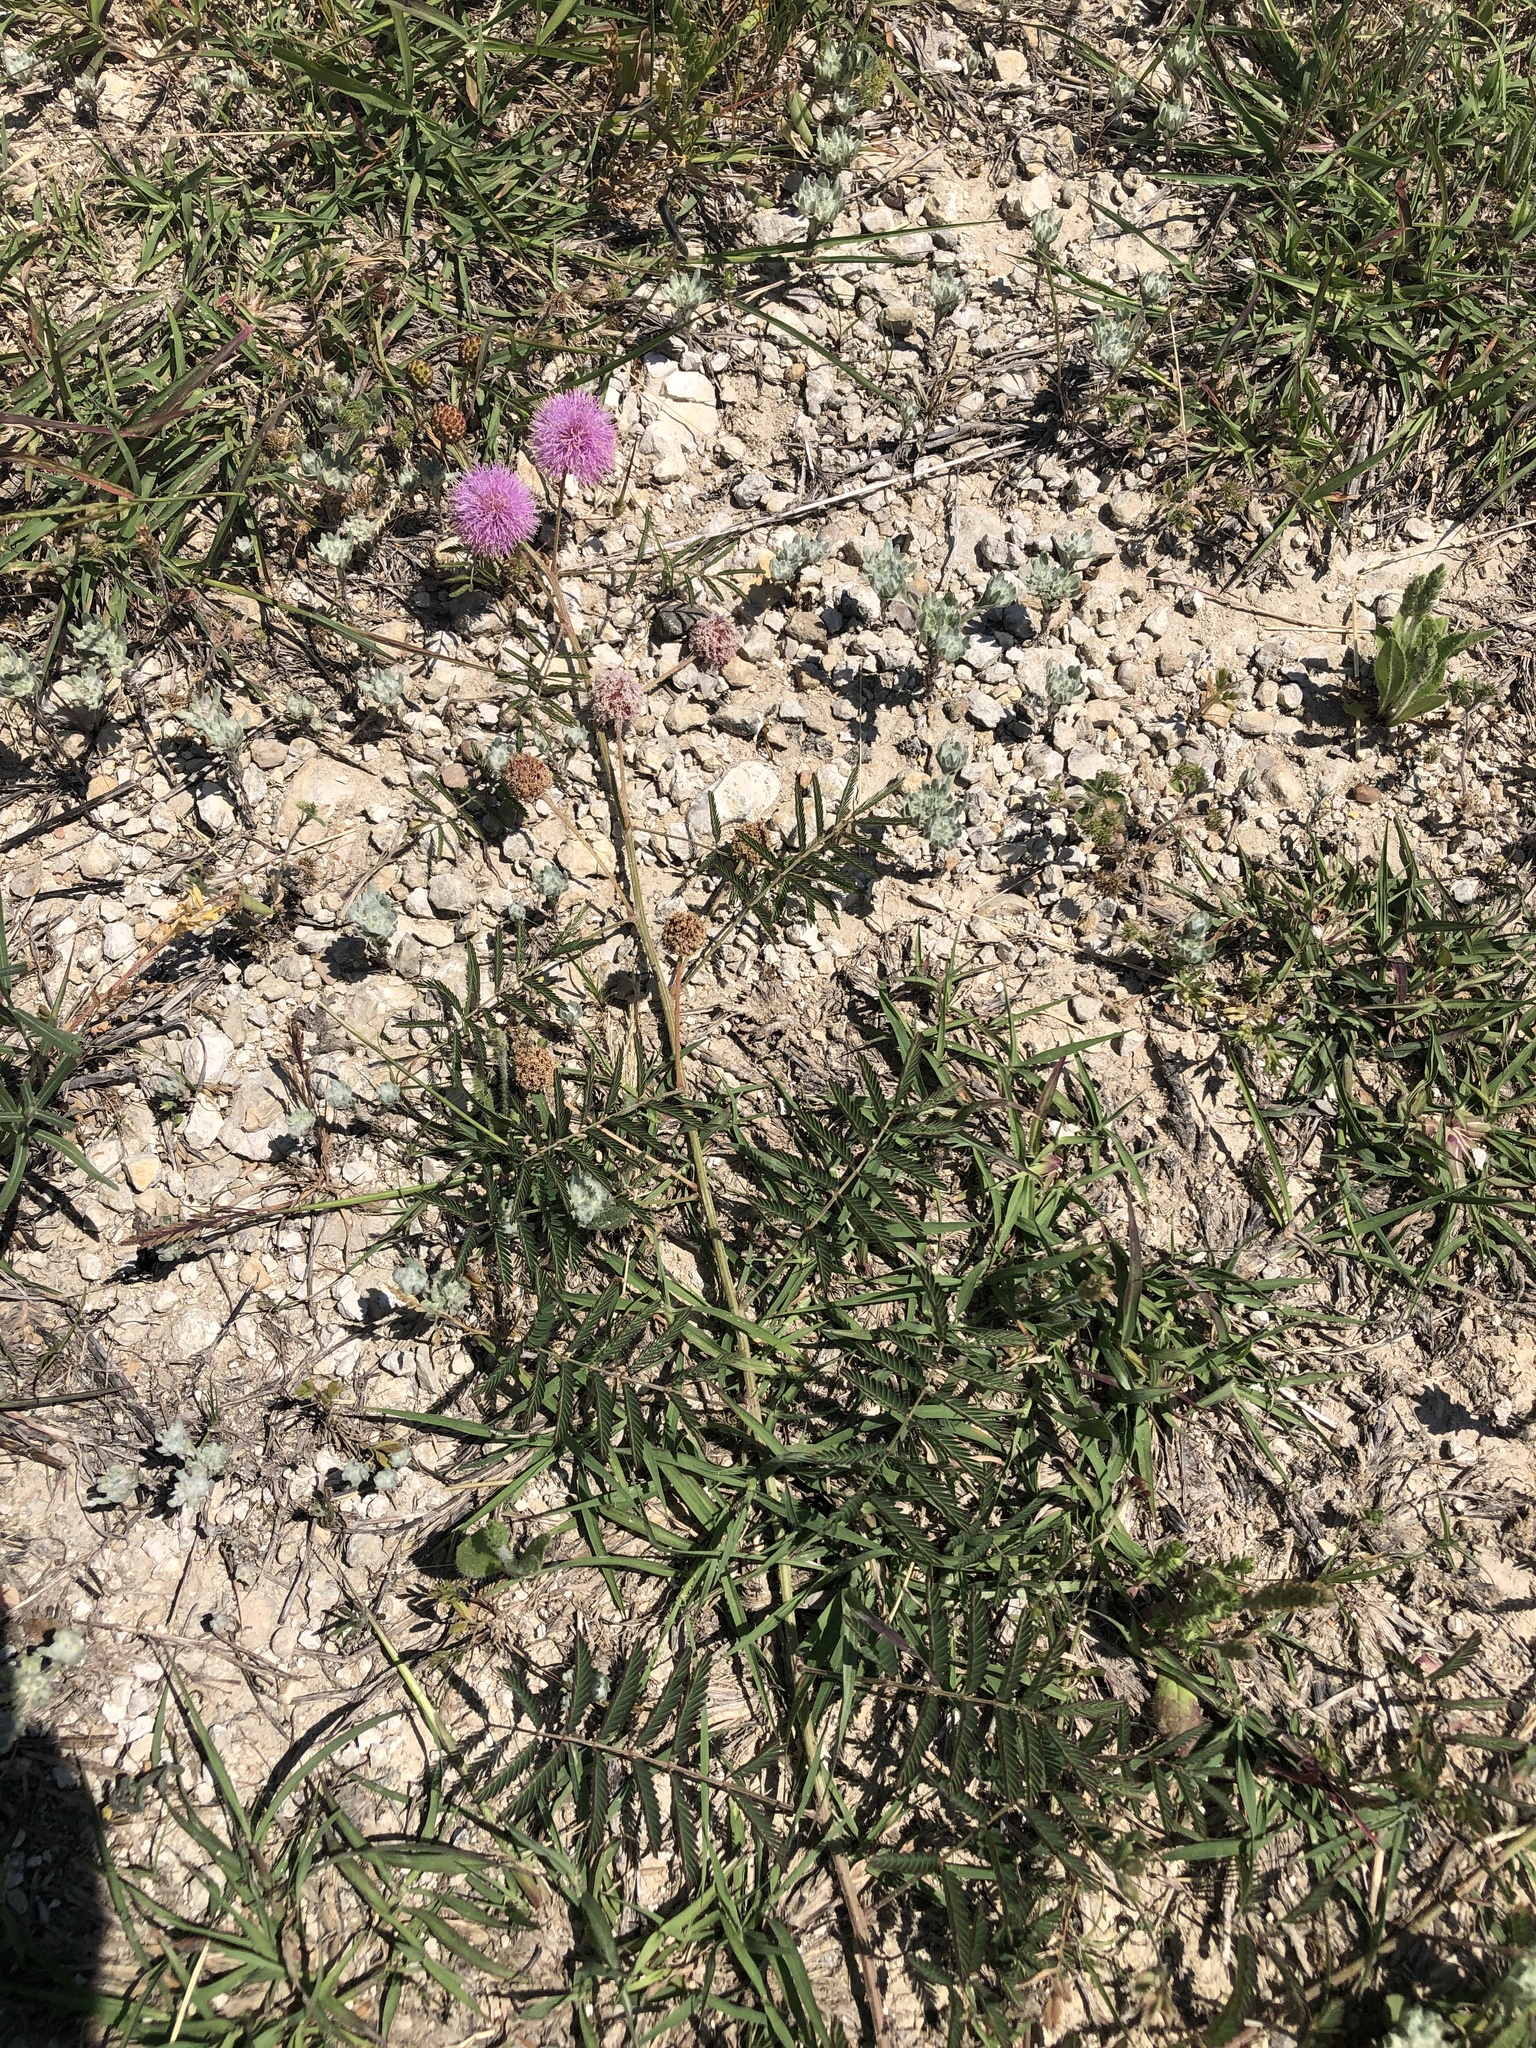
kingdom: Plantae
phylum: Tracheophyta
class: Magnoliopsida
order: Fabales
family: Fabaceae
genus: Mimosa
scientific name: Mimosa quadrivalvis
